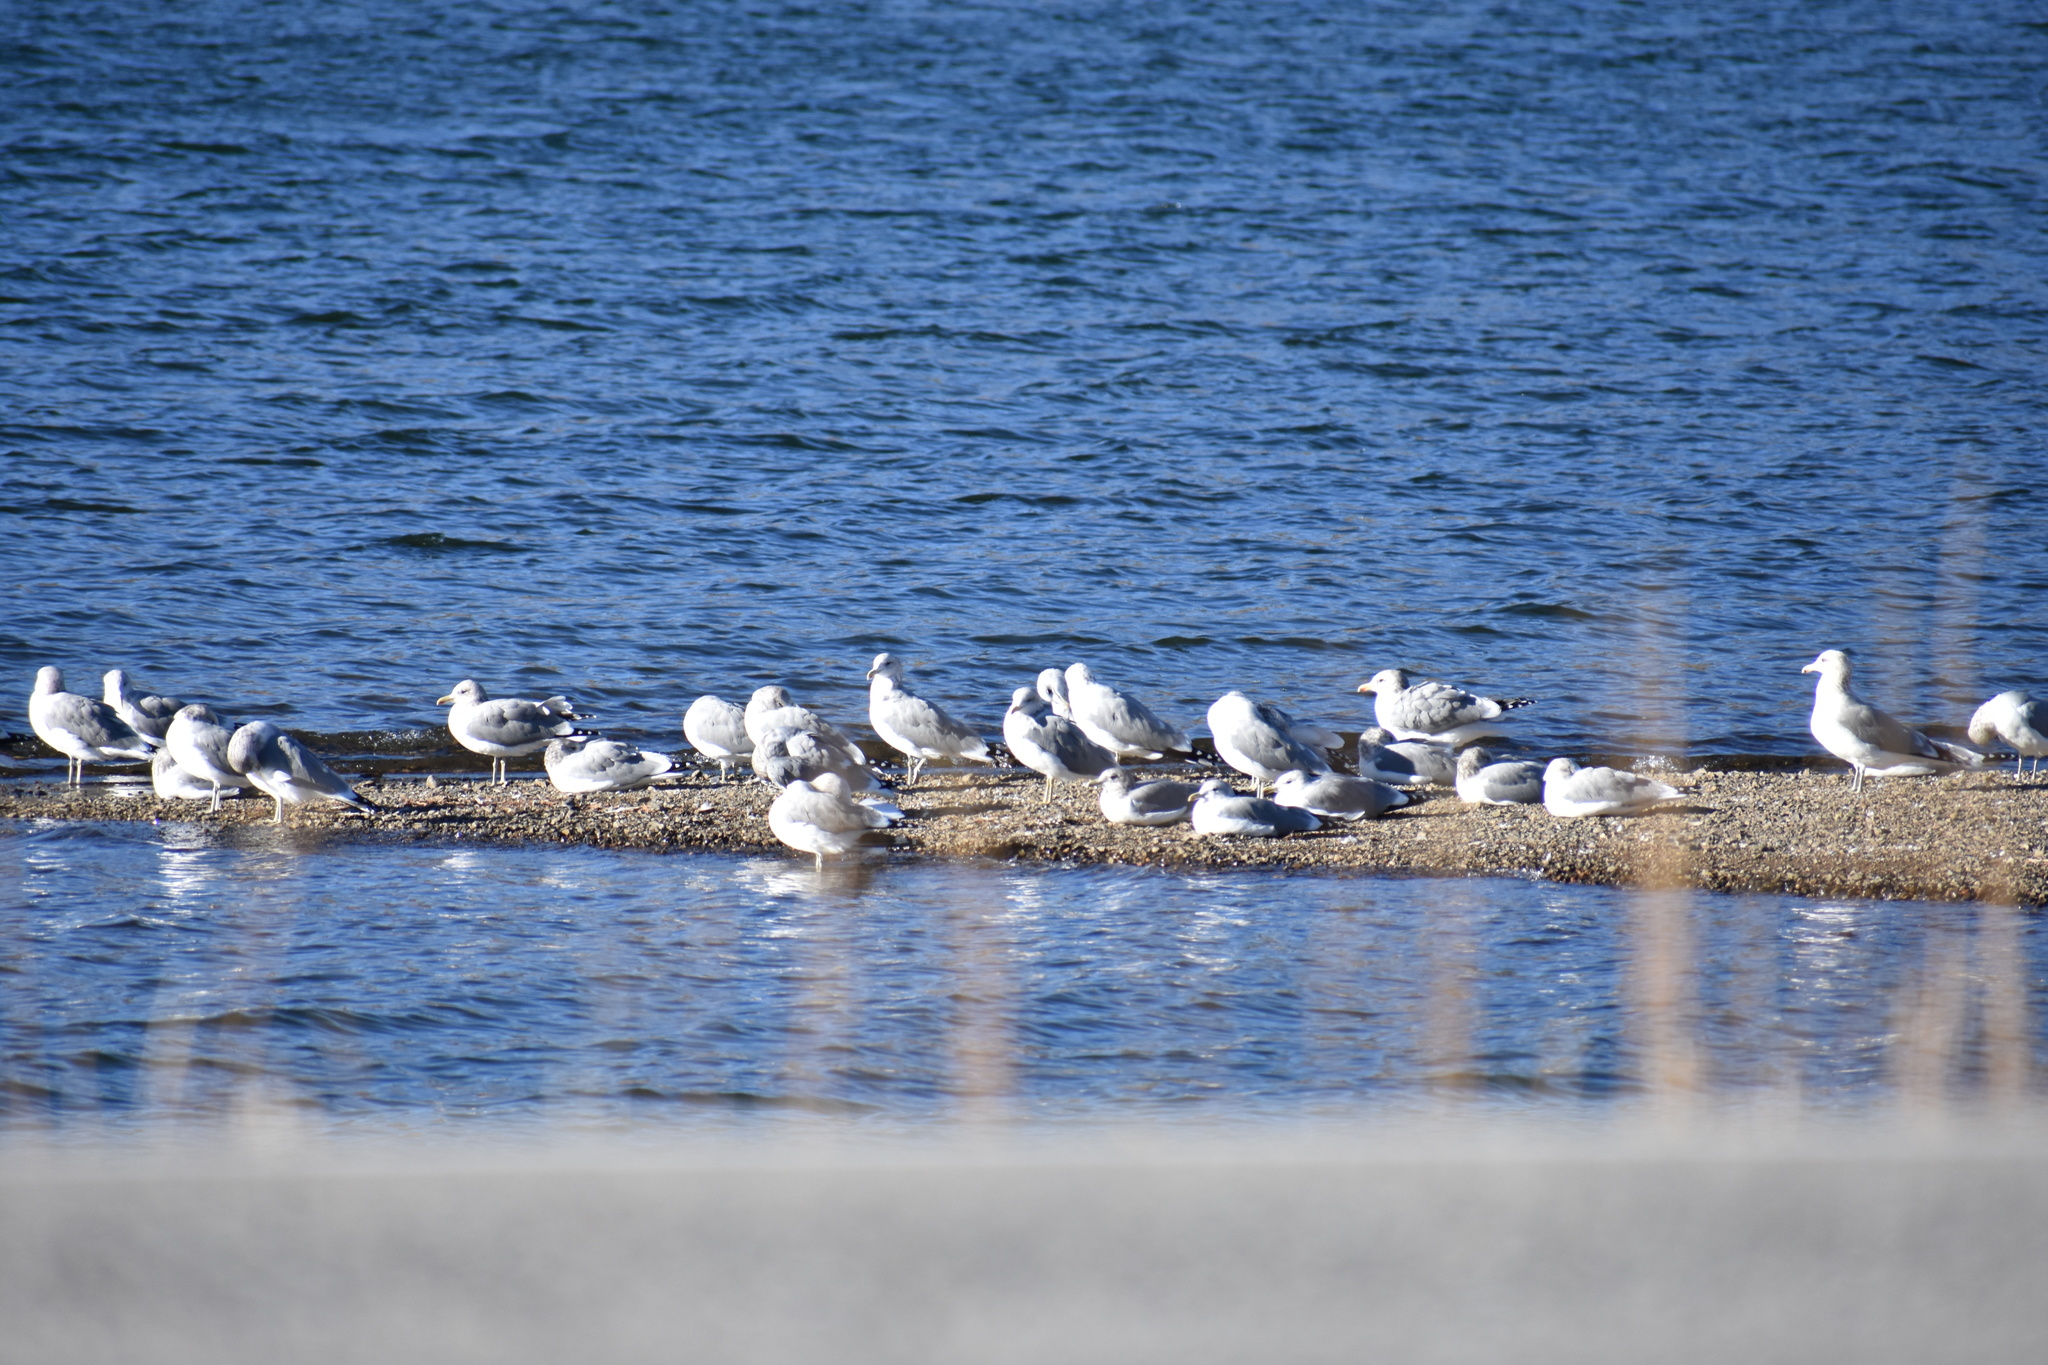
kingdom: Animalia
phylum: Chordata
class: Aves
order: Charadriiformes
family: Laridae
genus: Larus
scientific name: Larus californicus
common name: California gull
